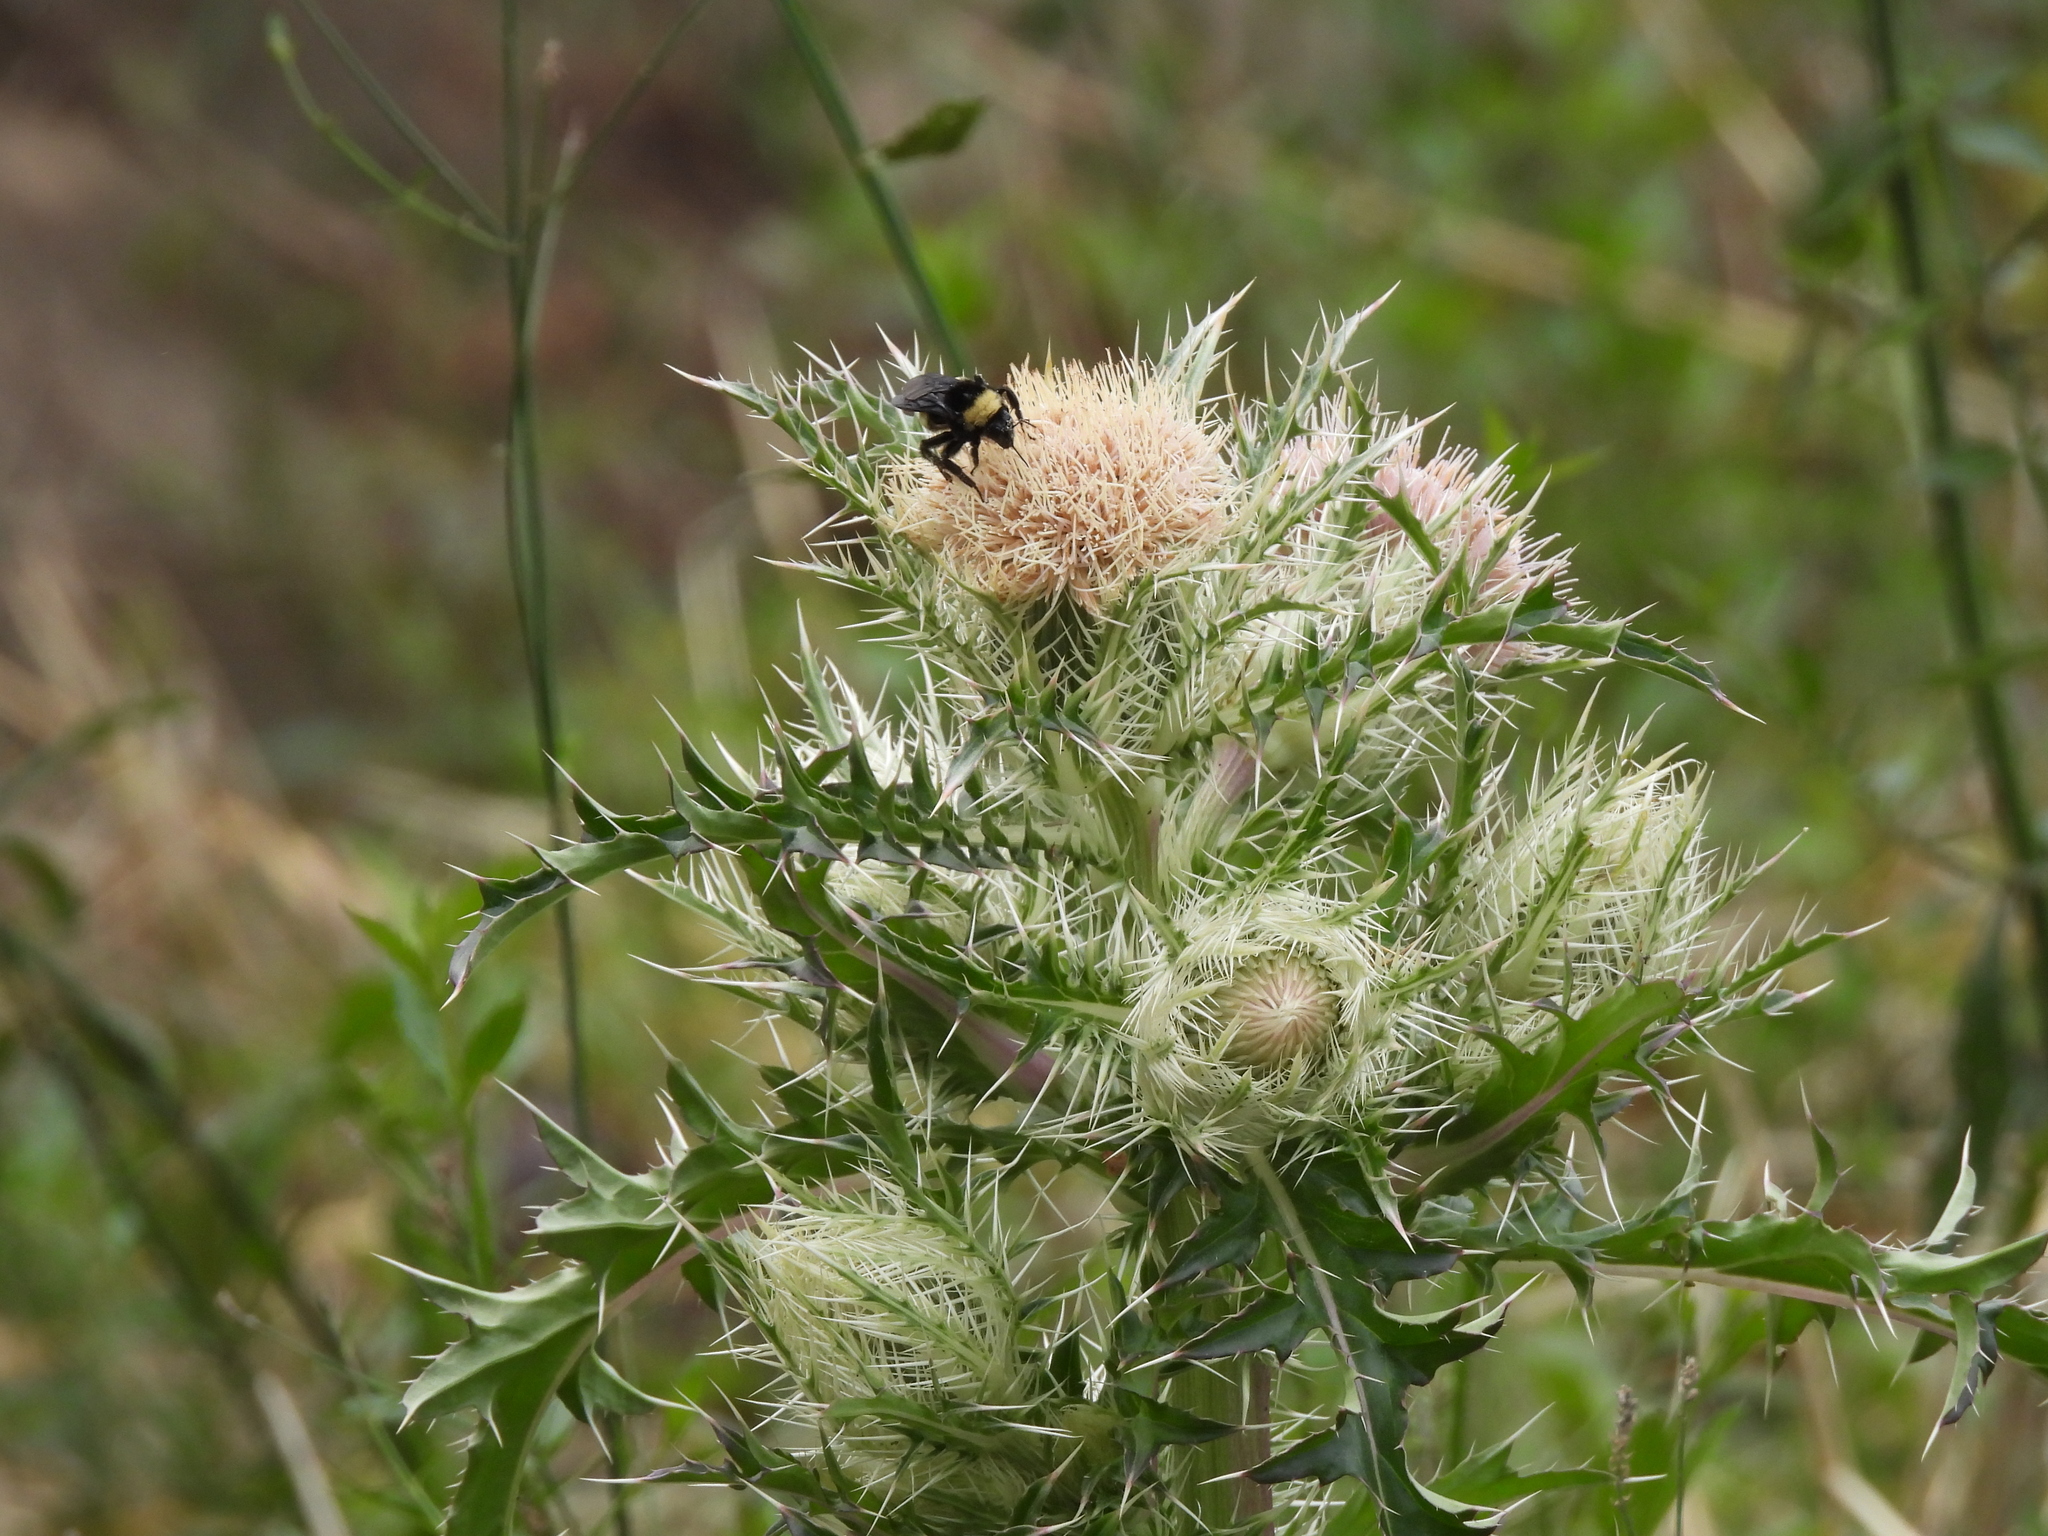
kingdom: Plantae
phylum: Tracheophyta
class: Magnoliopsida
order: Asterales
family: Asteraceae
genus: Cirsium
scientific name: Cirsium horridulum
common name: Bristly thistle
